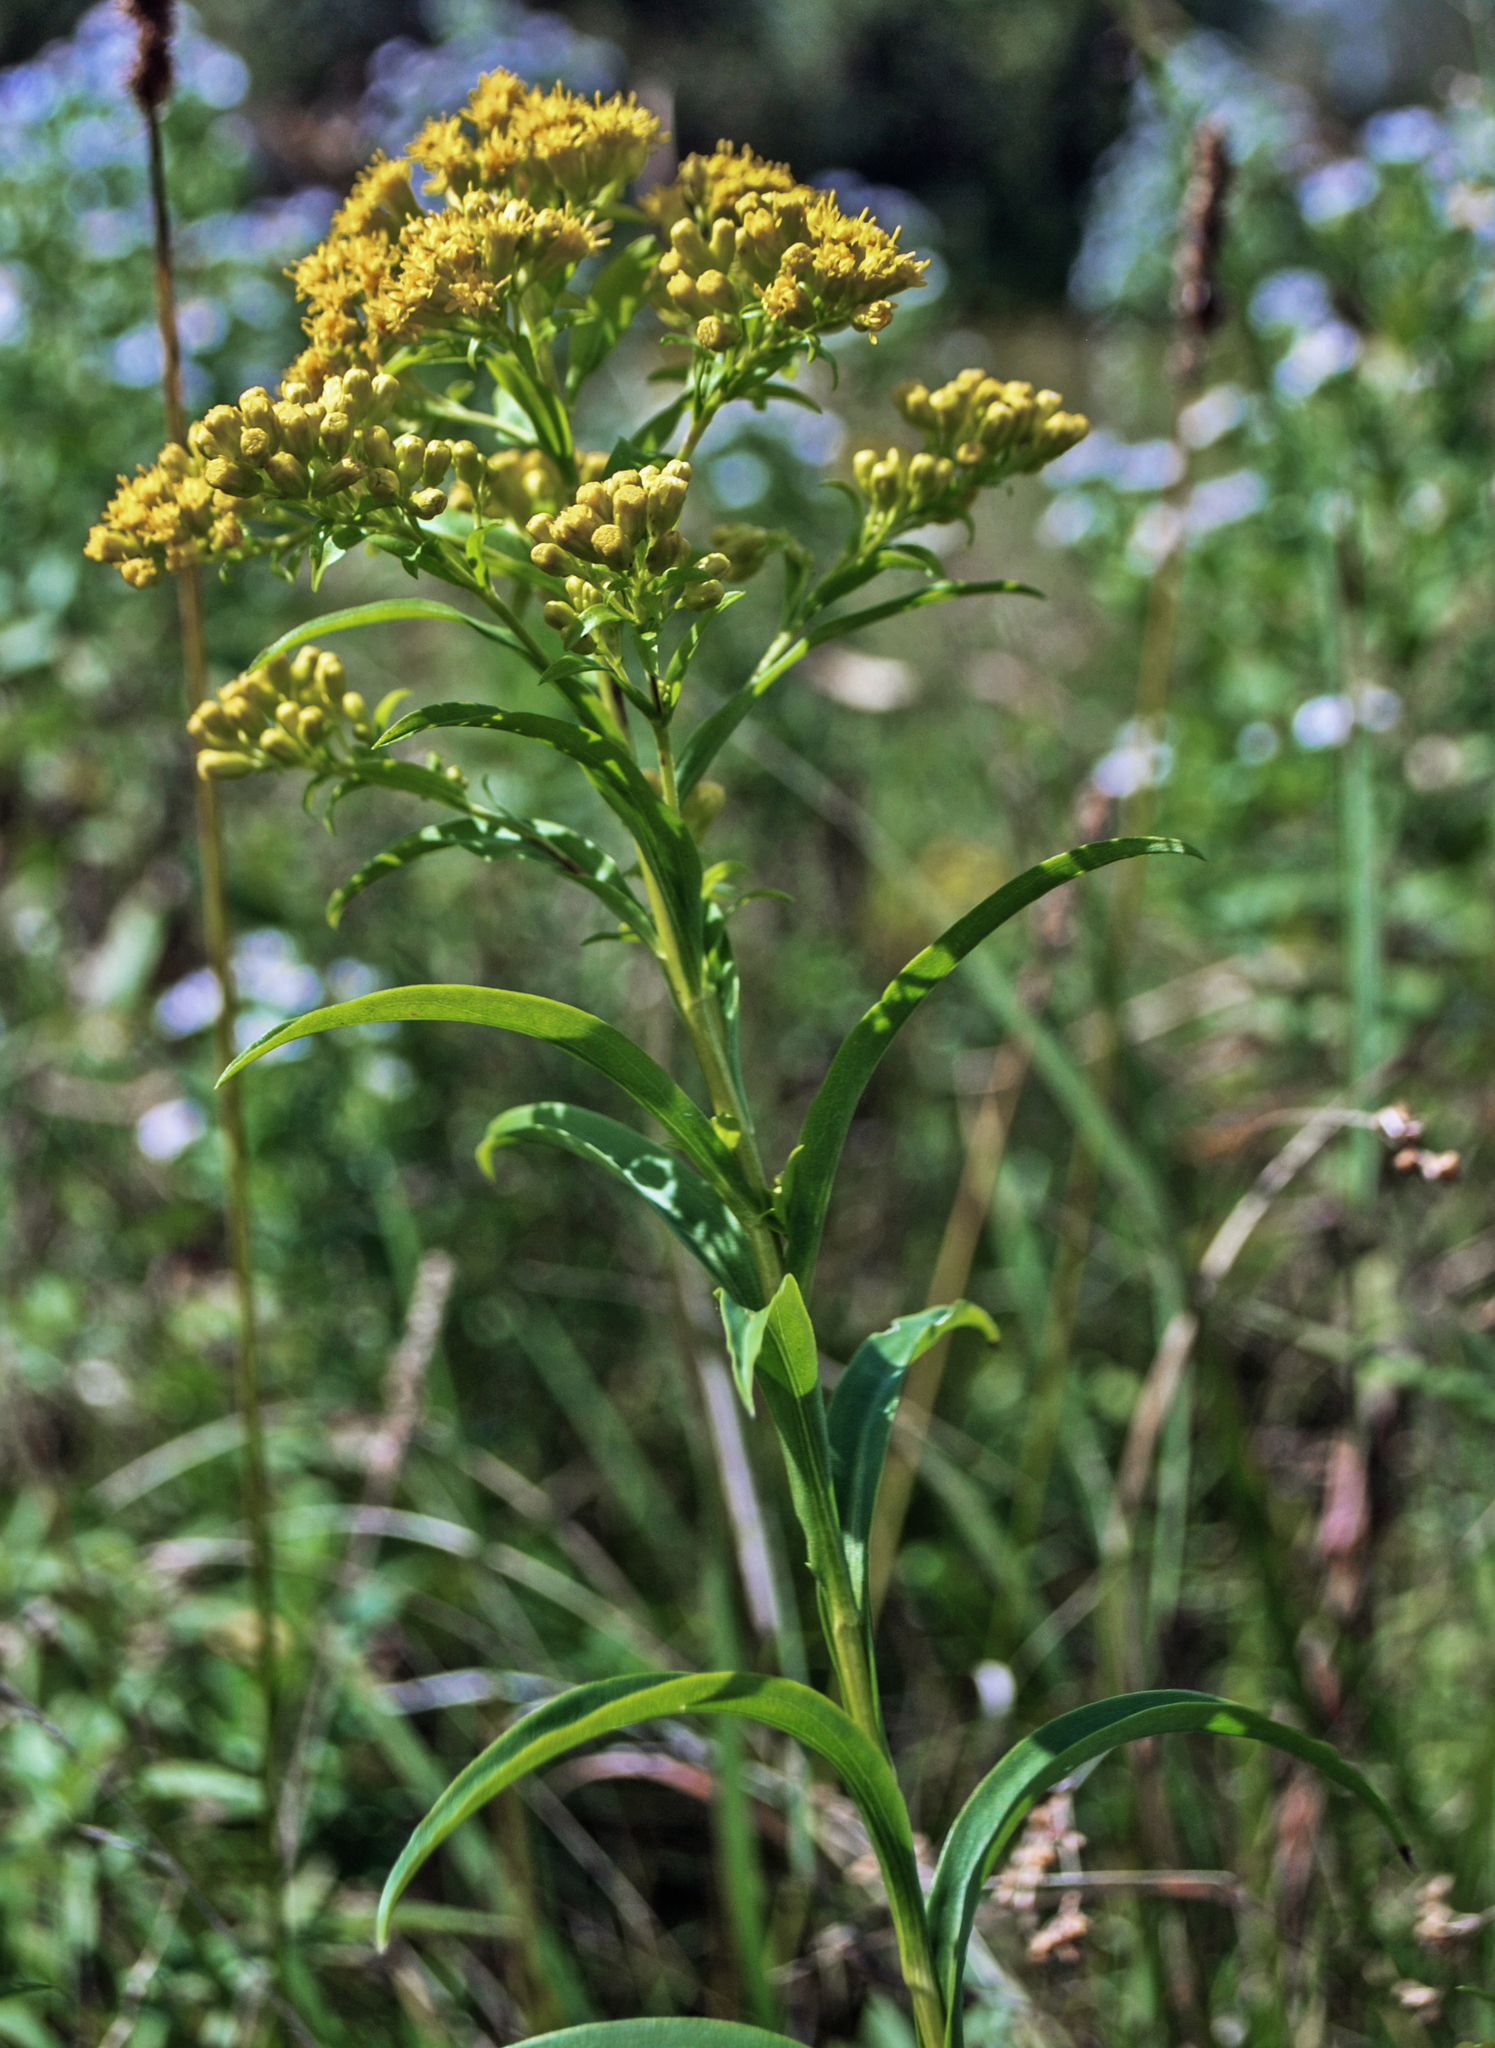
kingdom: Plantae
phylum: Tracheophyta
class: Magnoliopsida
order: Asterales
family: Asteraceae
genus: Solidago
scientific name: Solidago riddellii
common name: Riddell's goldenrod
